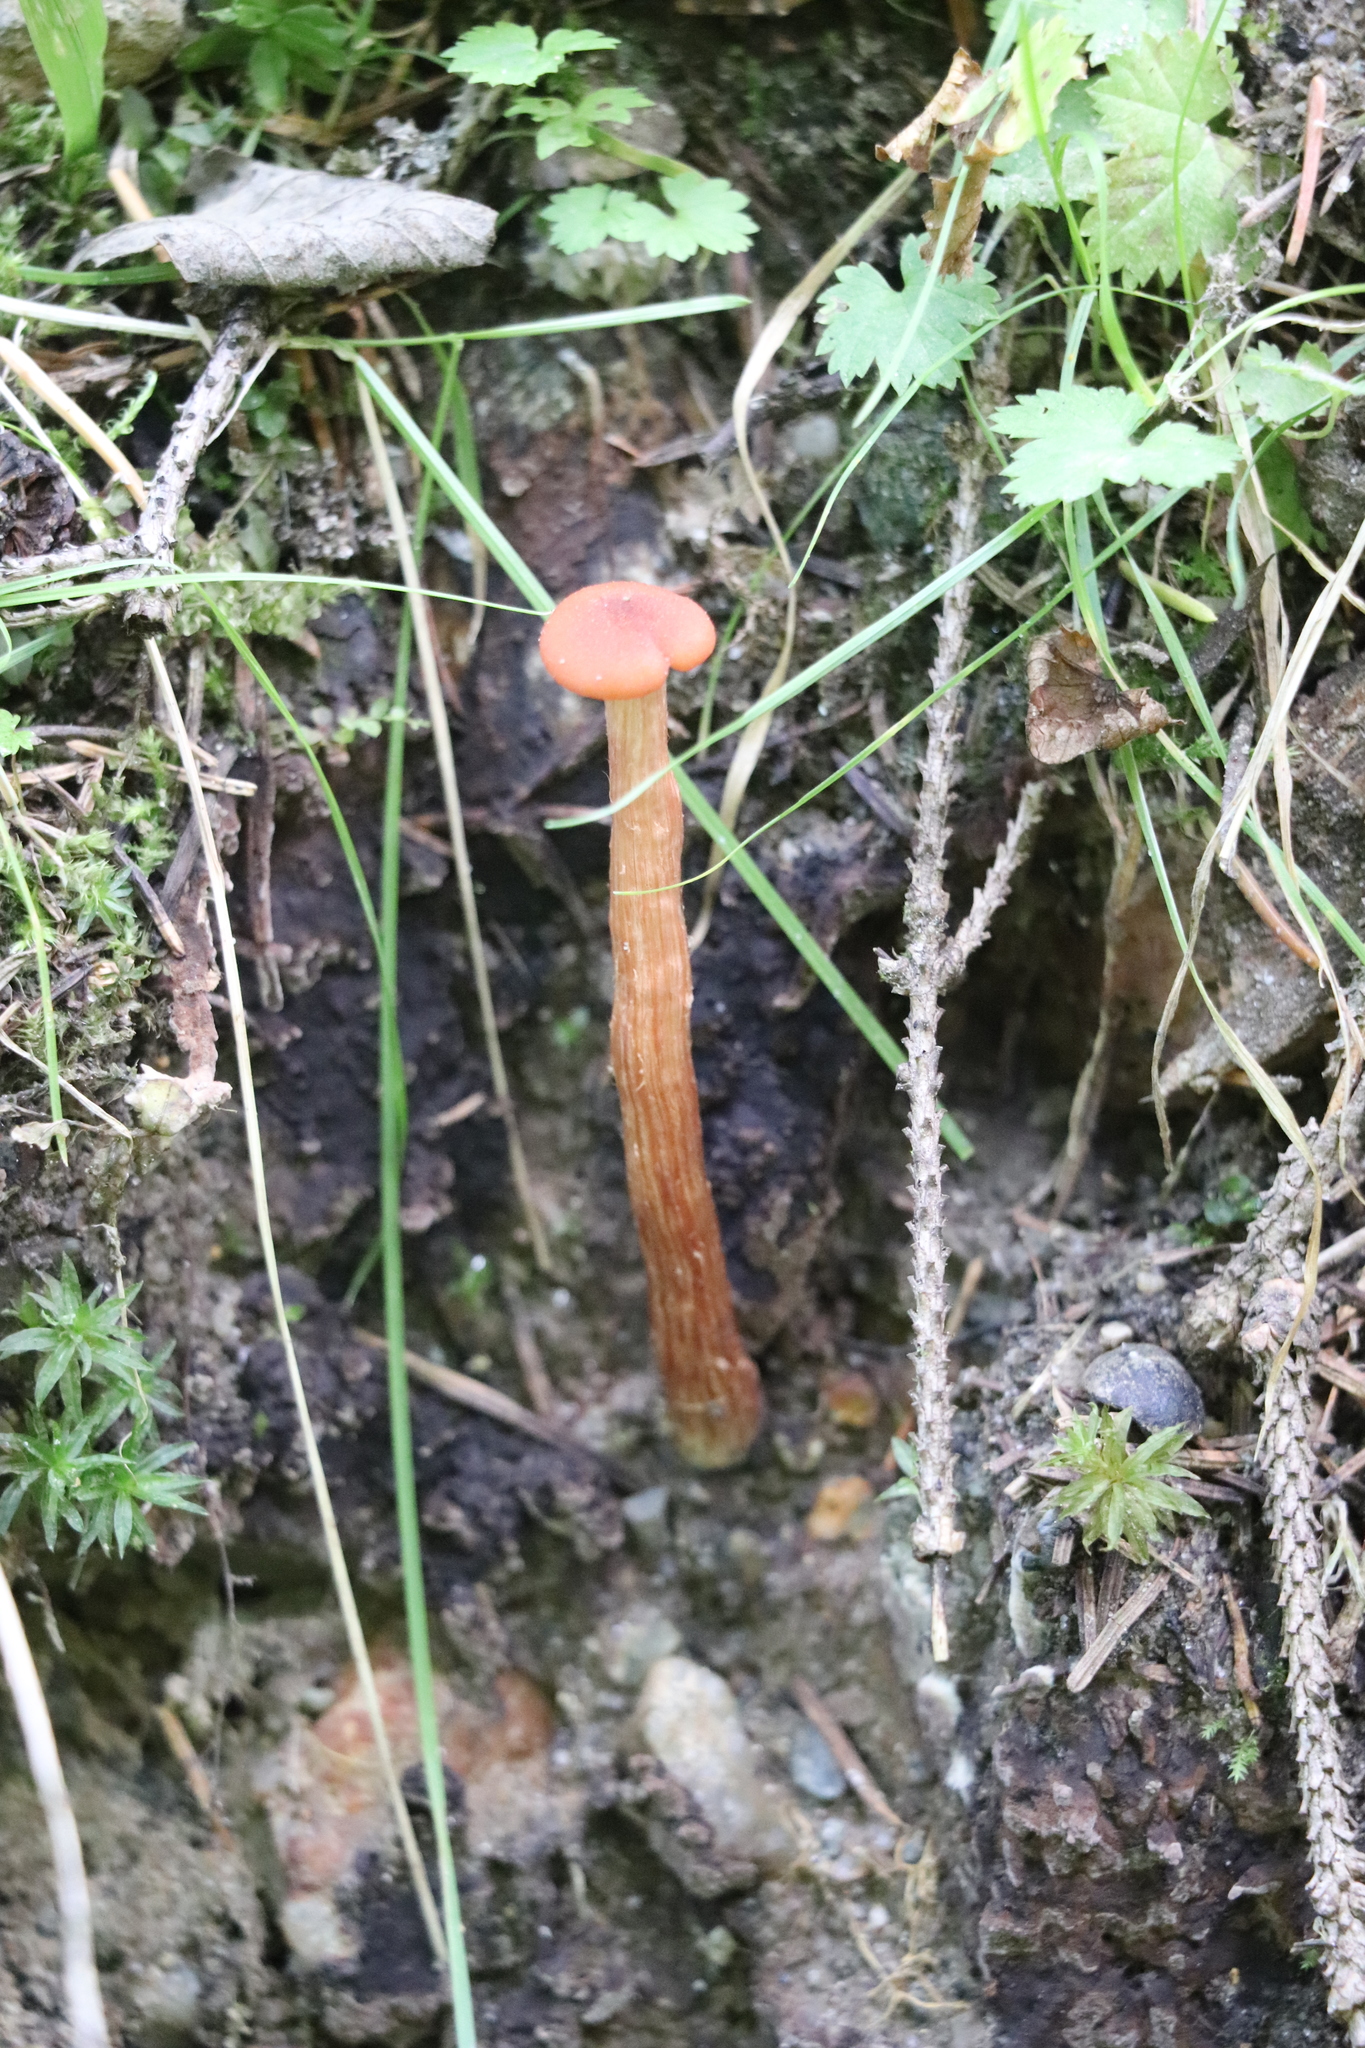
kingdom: Fungi
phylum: Basidiomycota
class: Agaricomycetes
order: Agaricales
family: Hydnangiaceae
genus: Laccaria
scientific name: Laccaria proxima
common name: Scurfy deceiver
